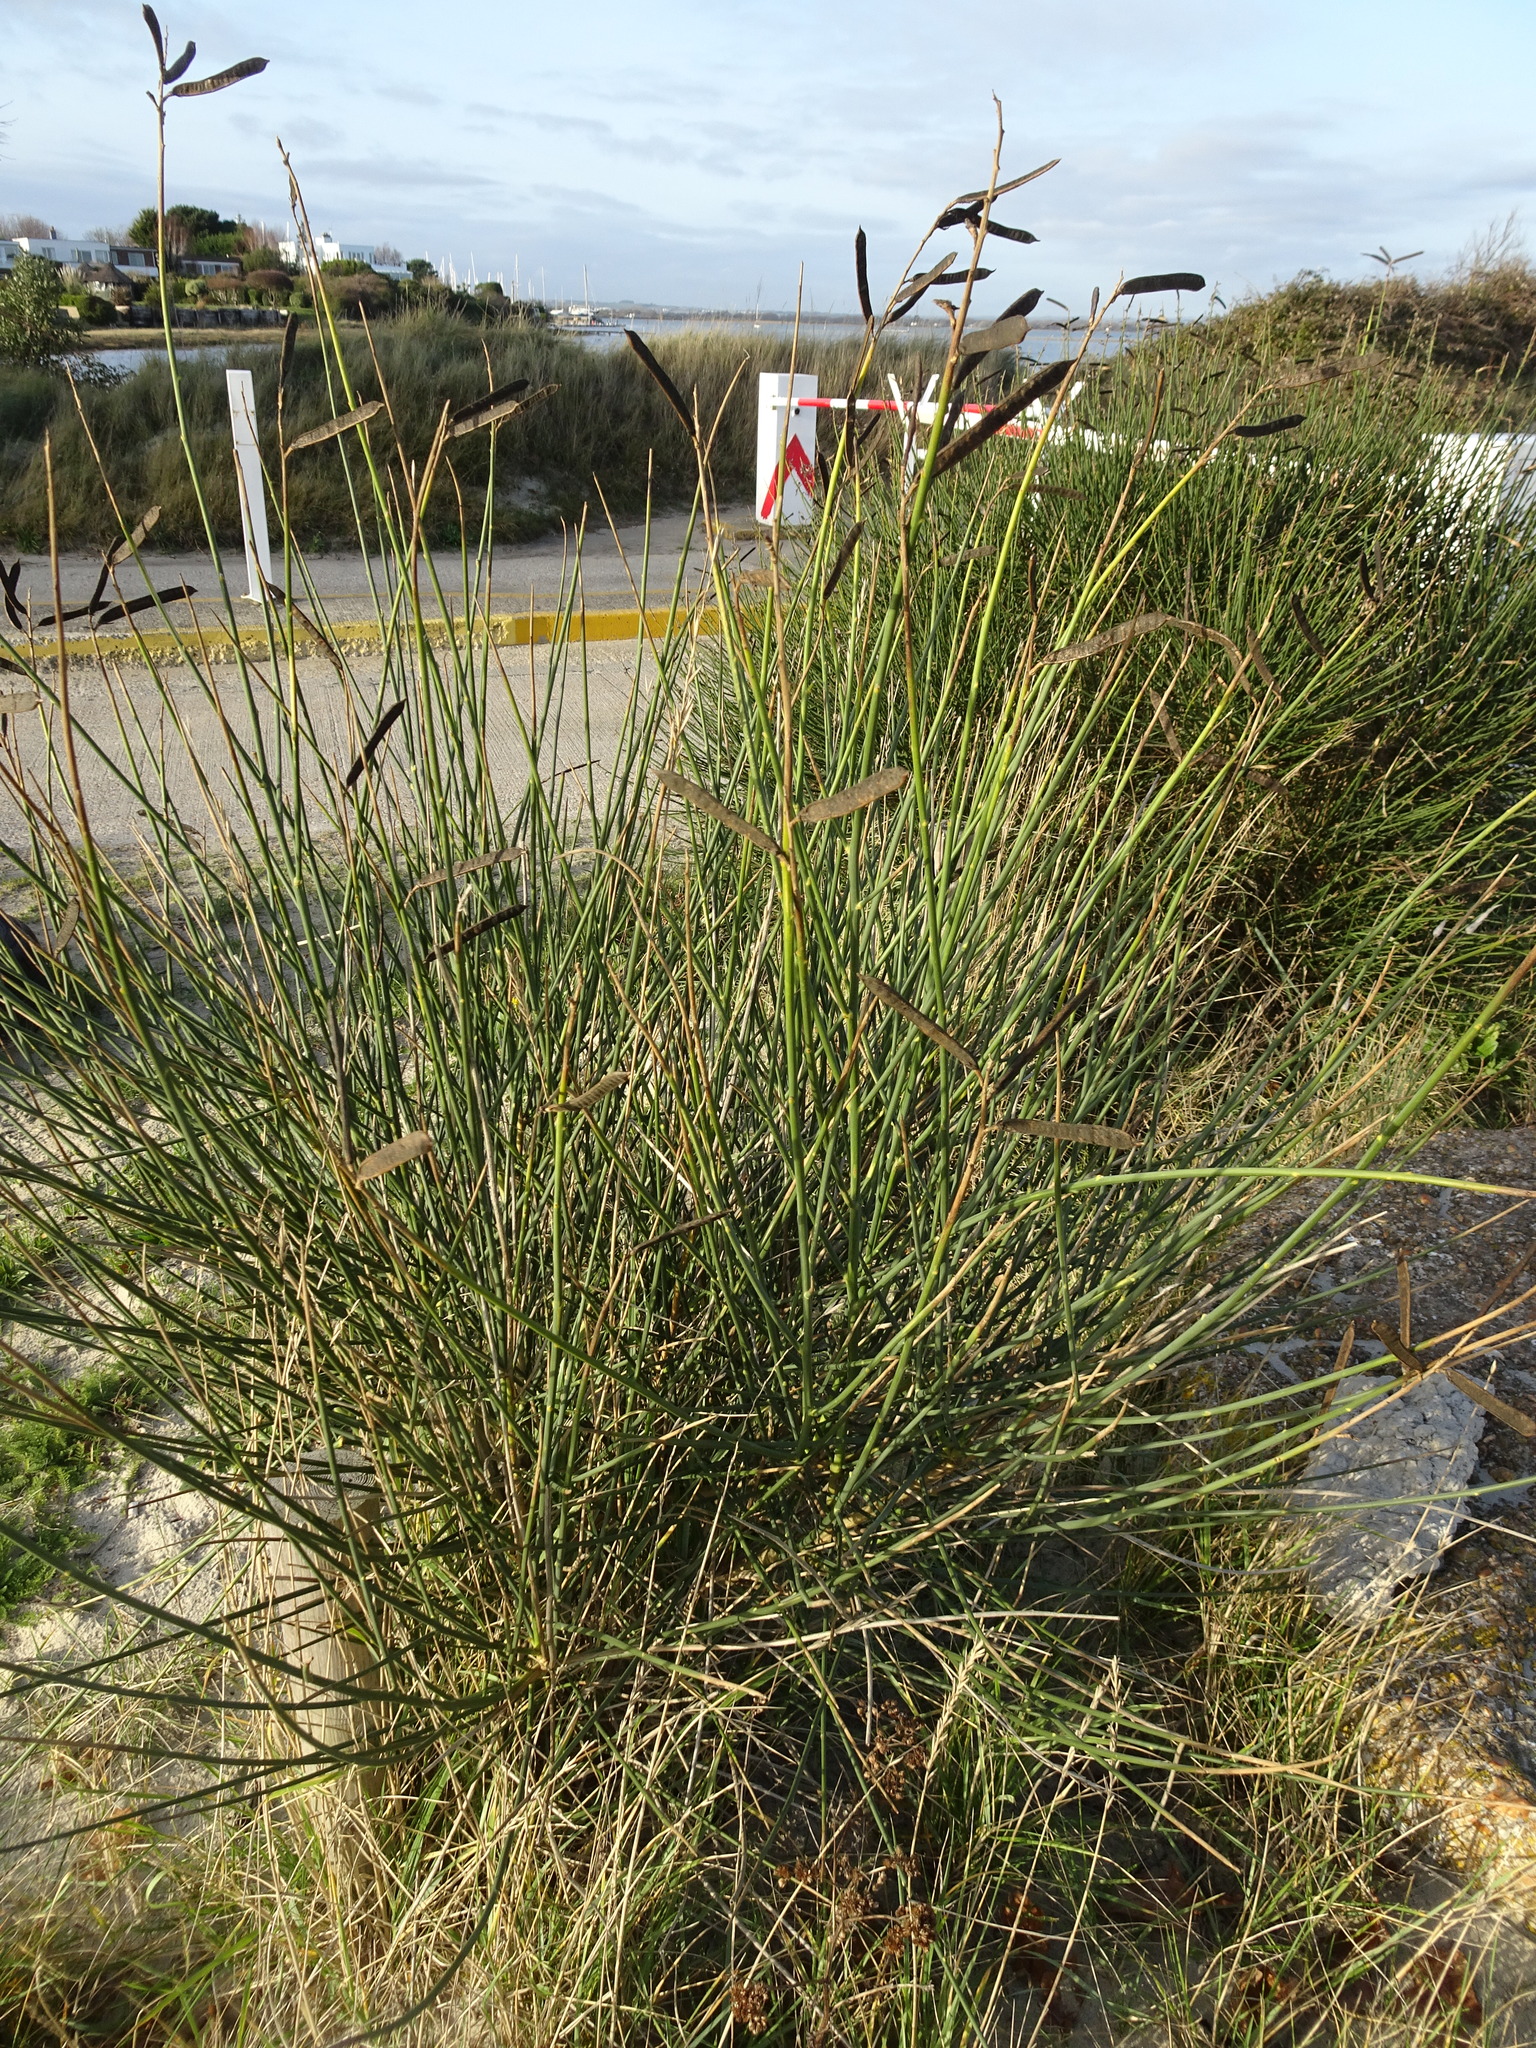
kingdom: Plantae
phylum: Tracheophyta
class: Magnoliopsida
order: Fabales
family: Fabaceae
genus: Spartium
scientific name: Spartium junceum
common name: Spanish broom
